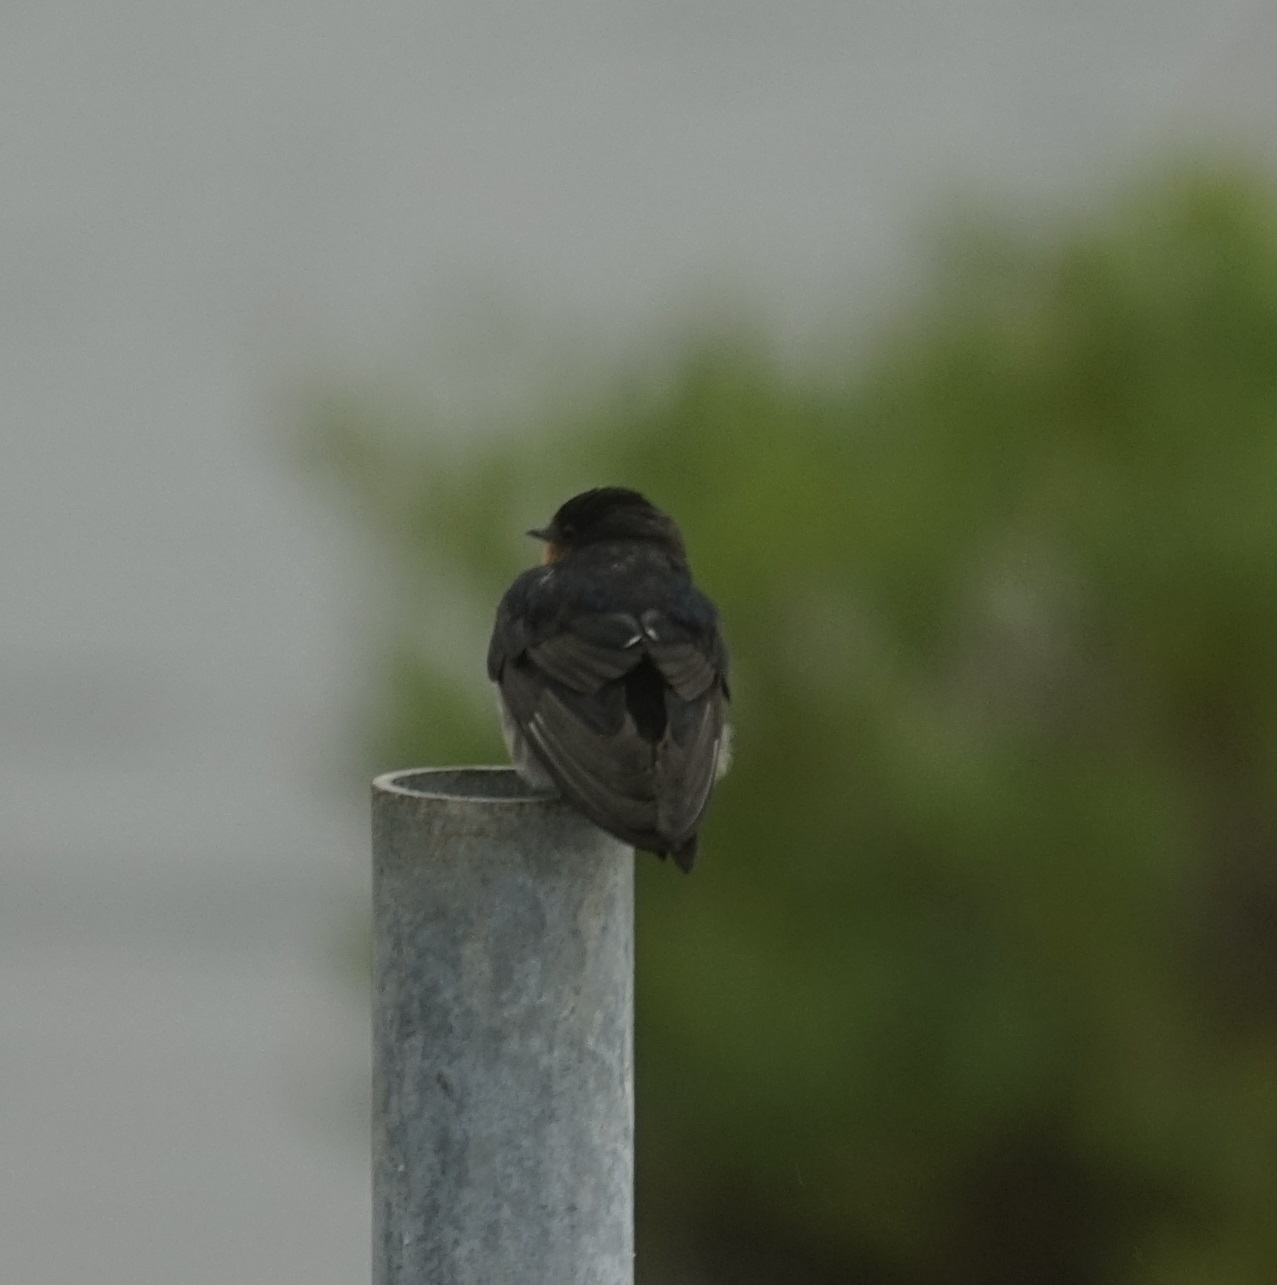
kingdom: Animalia
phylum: Chordata
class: Aves
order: Passeriformes
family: Hirundinidae
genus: Hirundo
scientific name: Hirundo neoxena
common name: Welcome swallow
